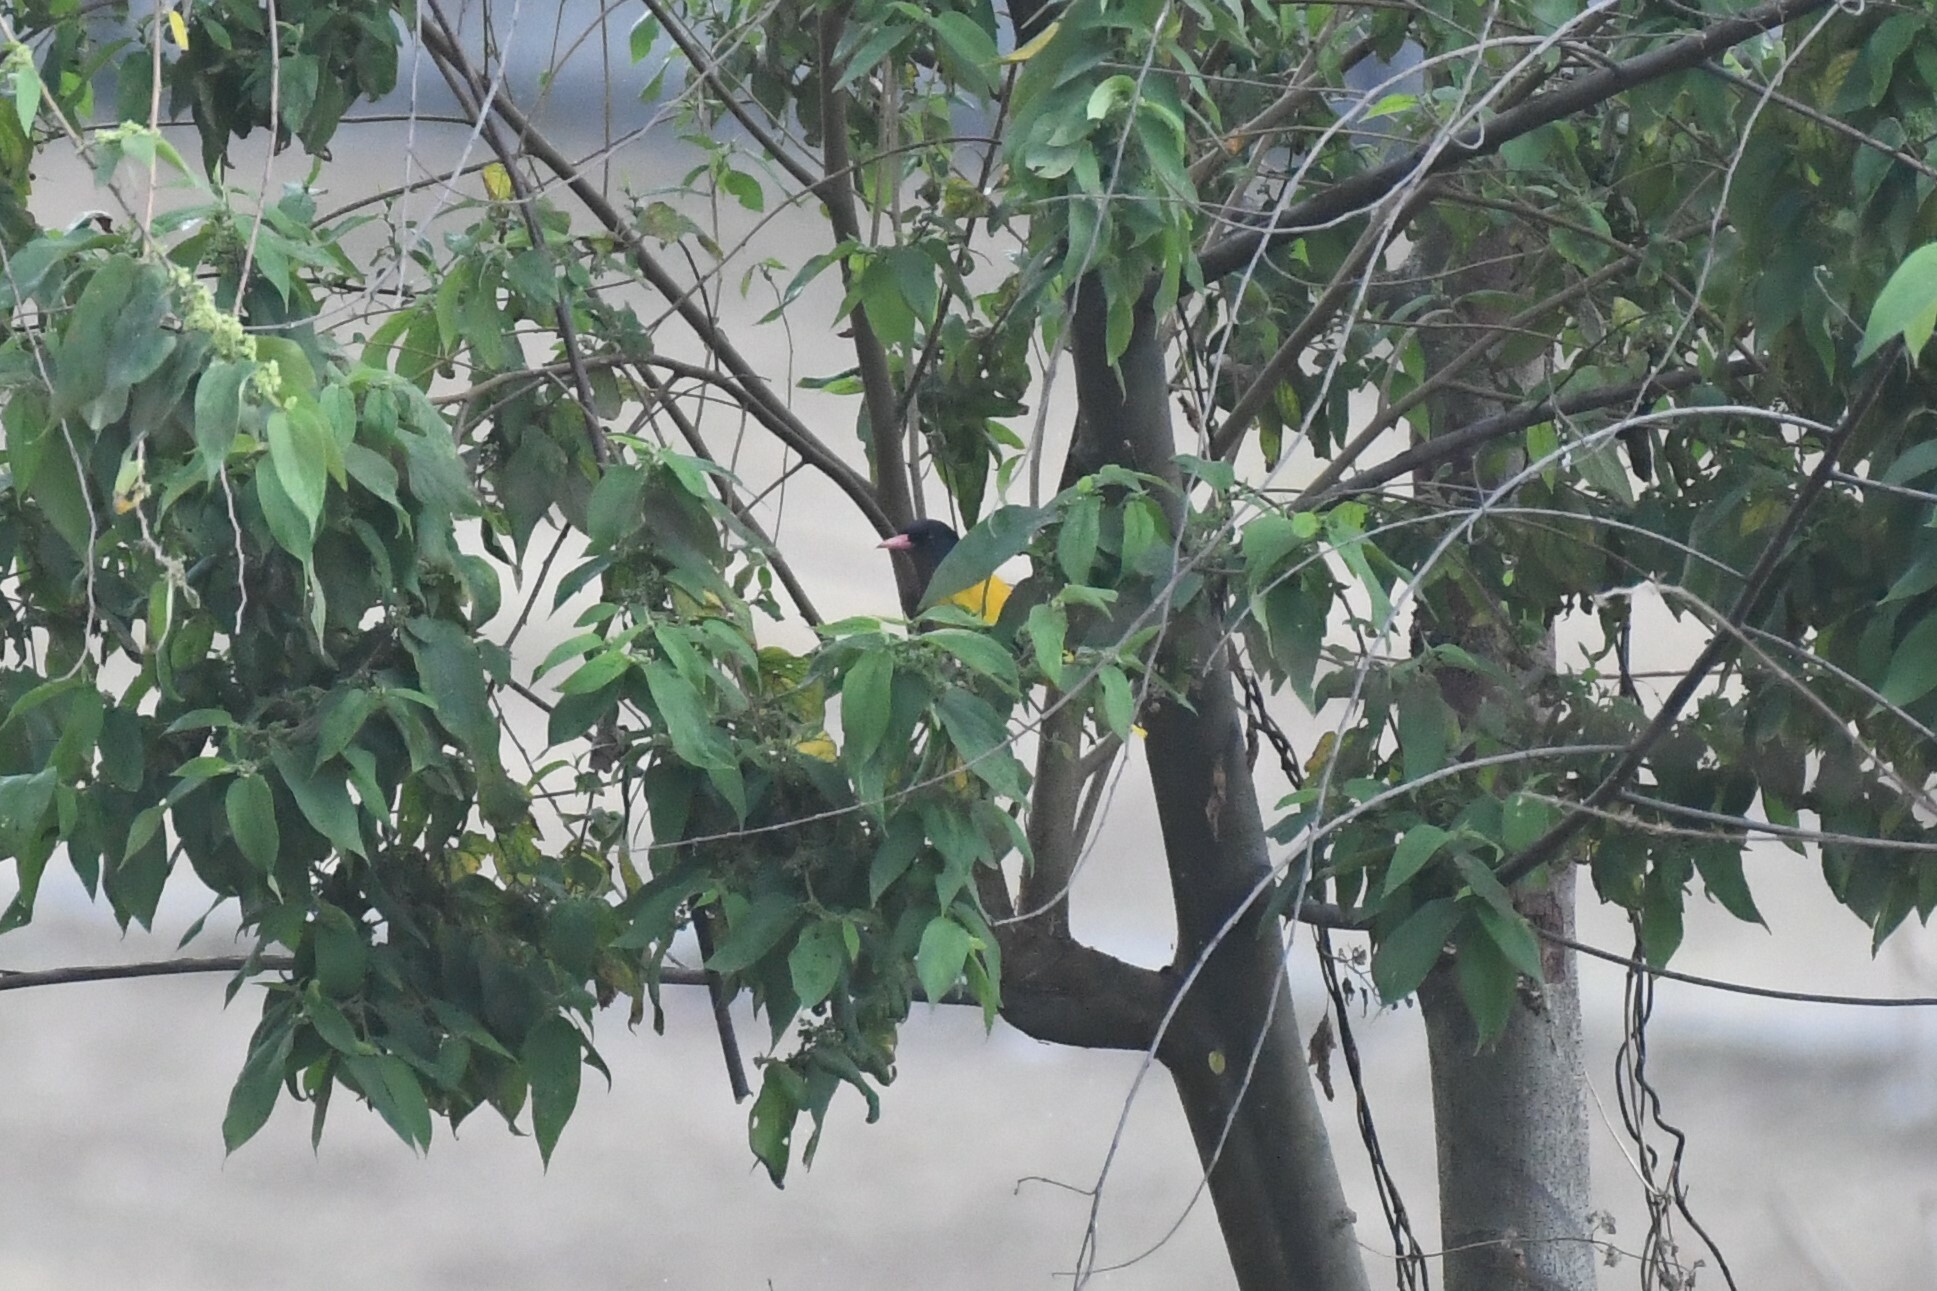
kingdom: Animalia
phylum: Chordata
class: Aves
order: Passeriformes
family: Oriolidae
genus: Oriolus
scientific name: Oriolus xanthornus
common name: Black-hooded oriole
